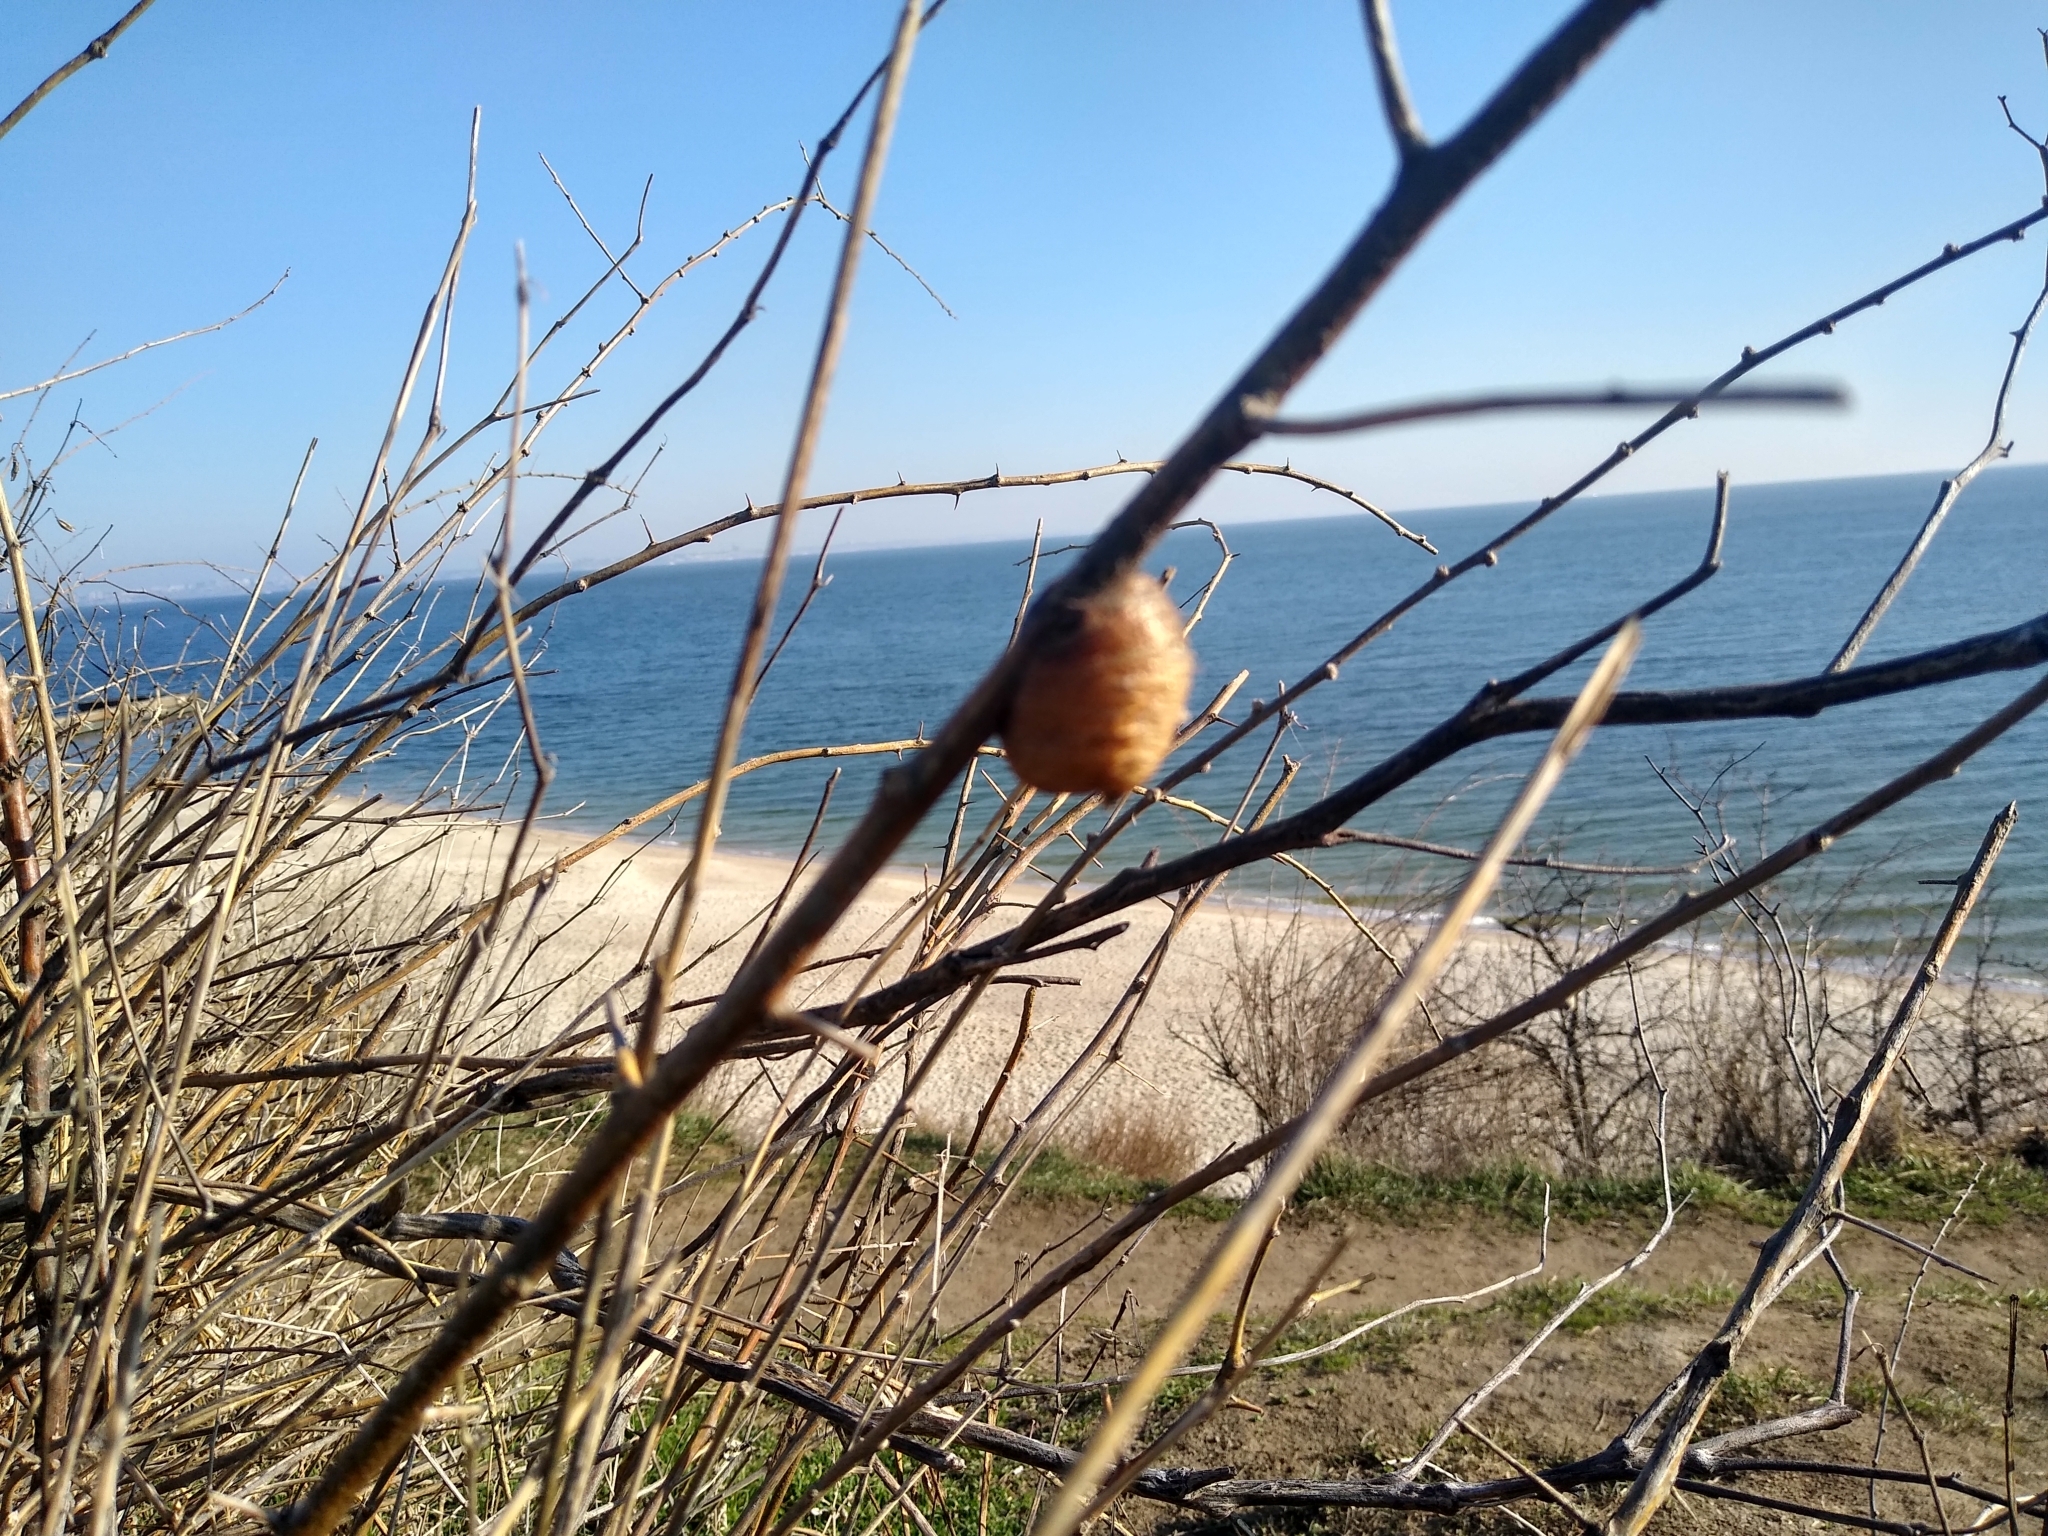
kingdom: Animalia
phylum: Arthropoda
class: Insecta
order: Mantodea
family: Mantidae
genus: Hierodula
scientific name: Hierodula transcaucasica
